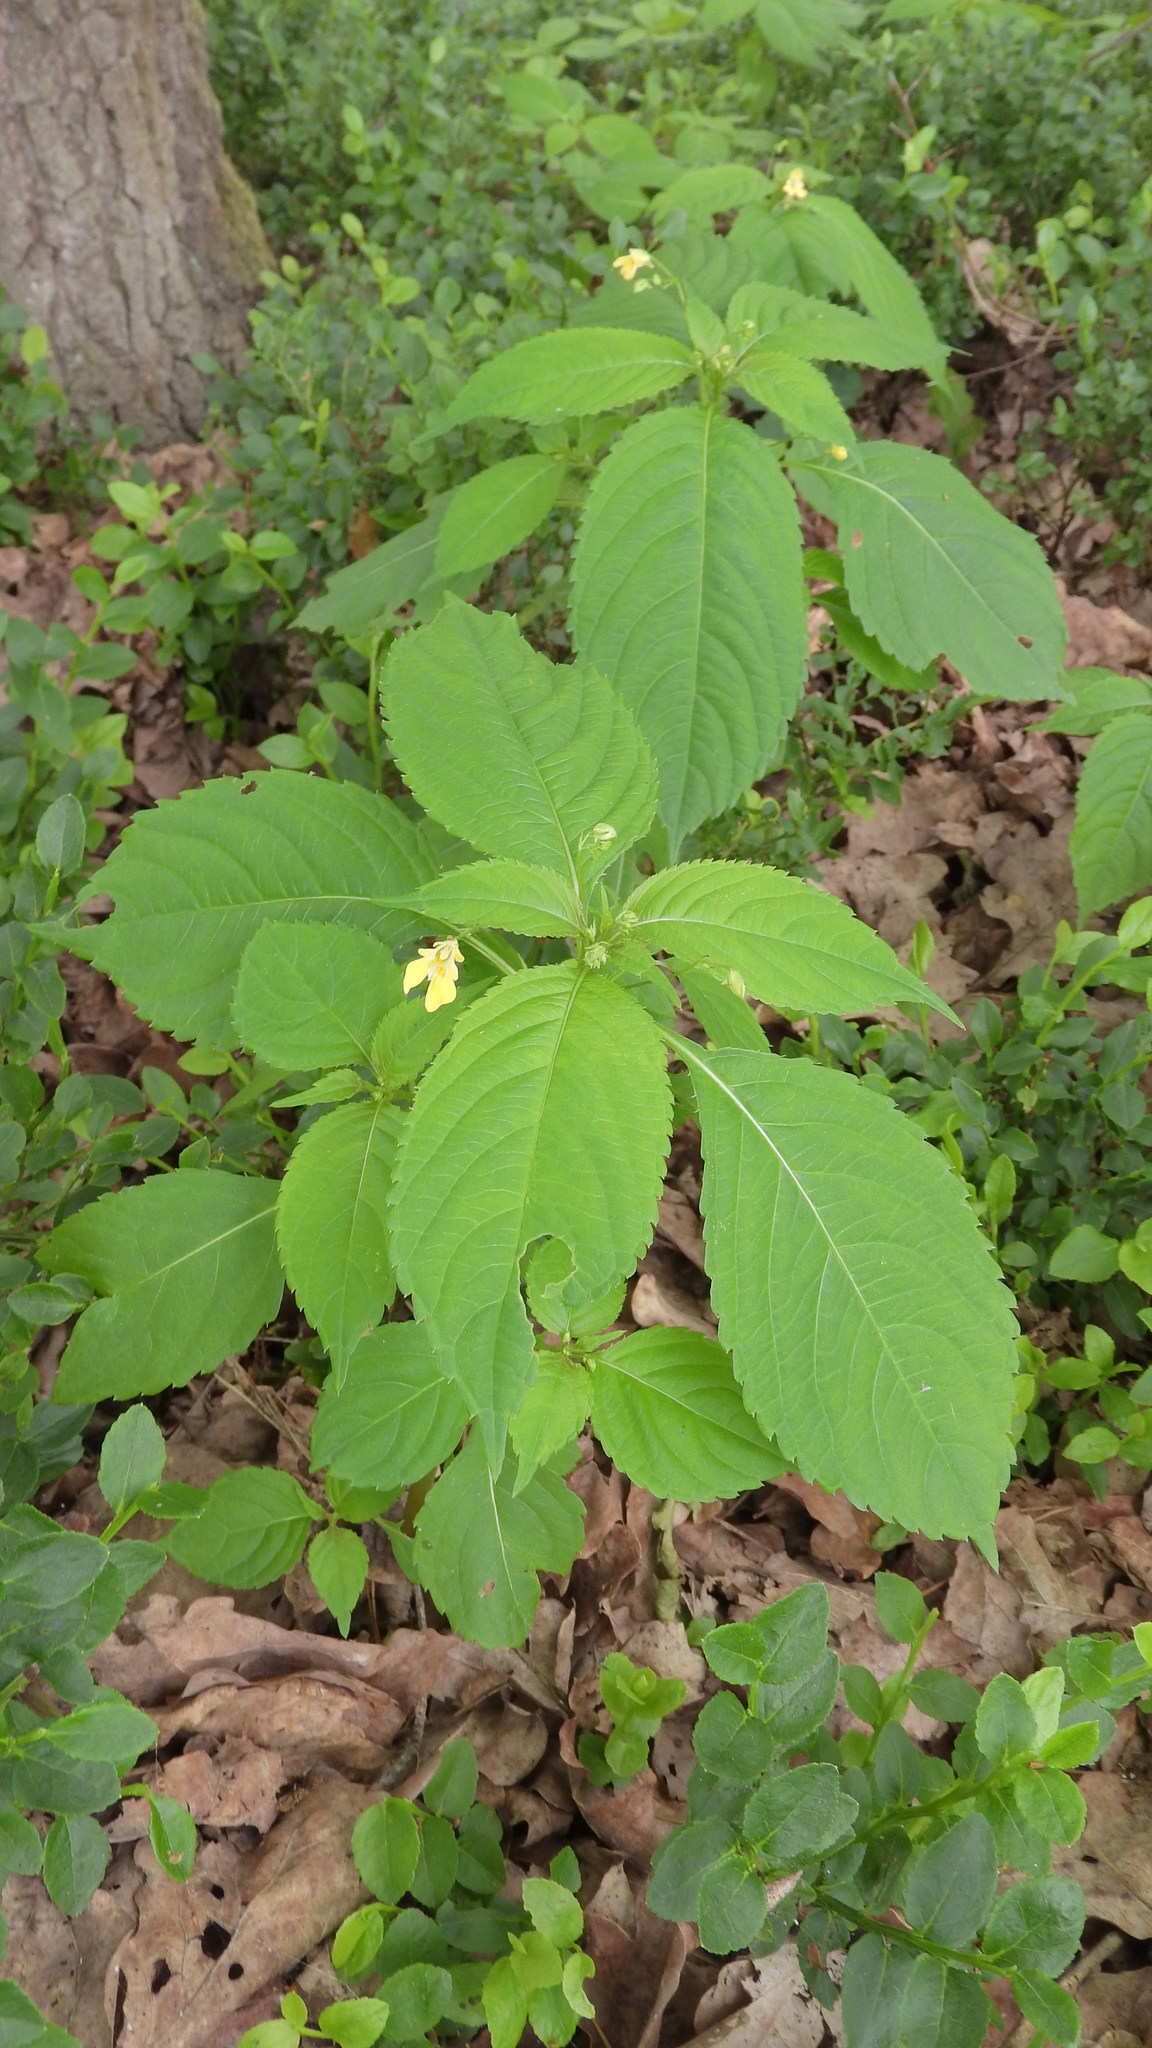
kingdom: Plantae
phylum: Tracheophyta
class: Magnoliopsida
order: Ericales
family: Balsaminaceae
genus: Impatiens
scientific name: Impatiens parviflora
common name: Small balsam
